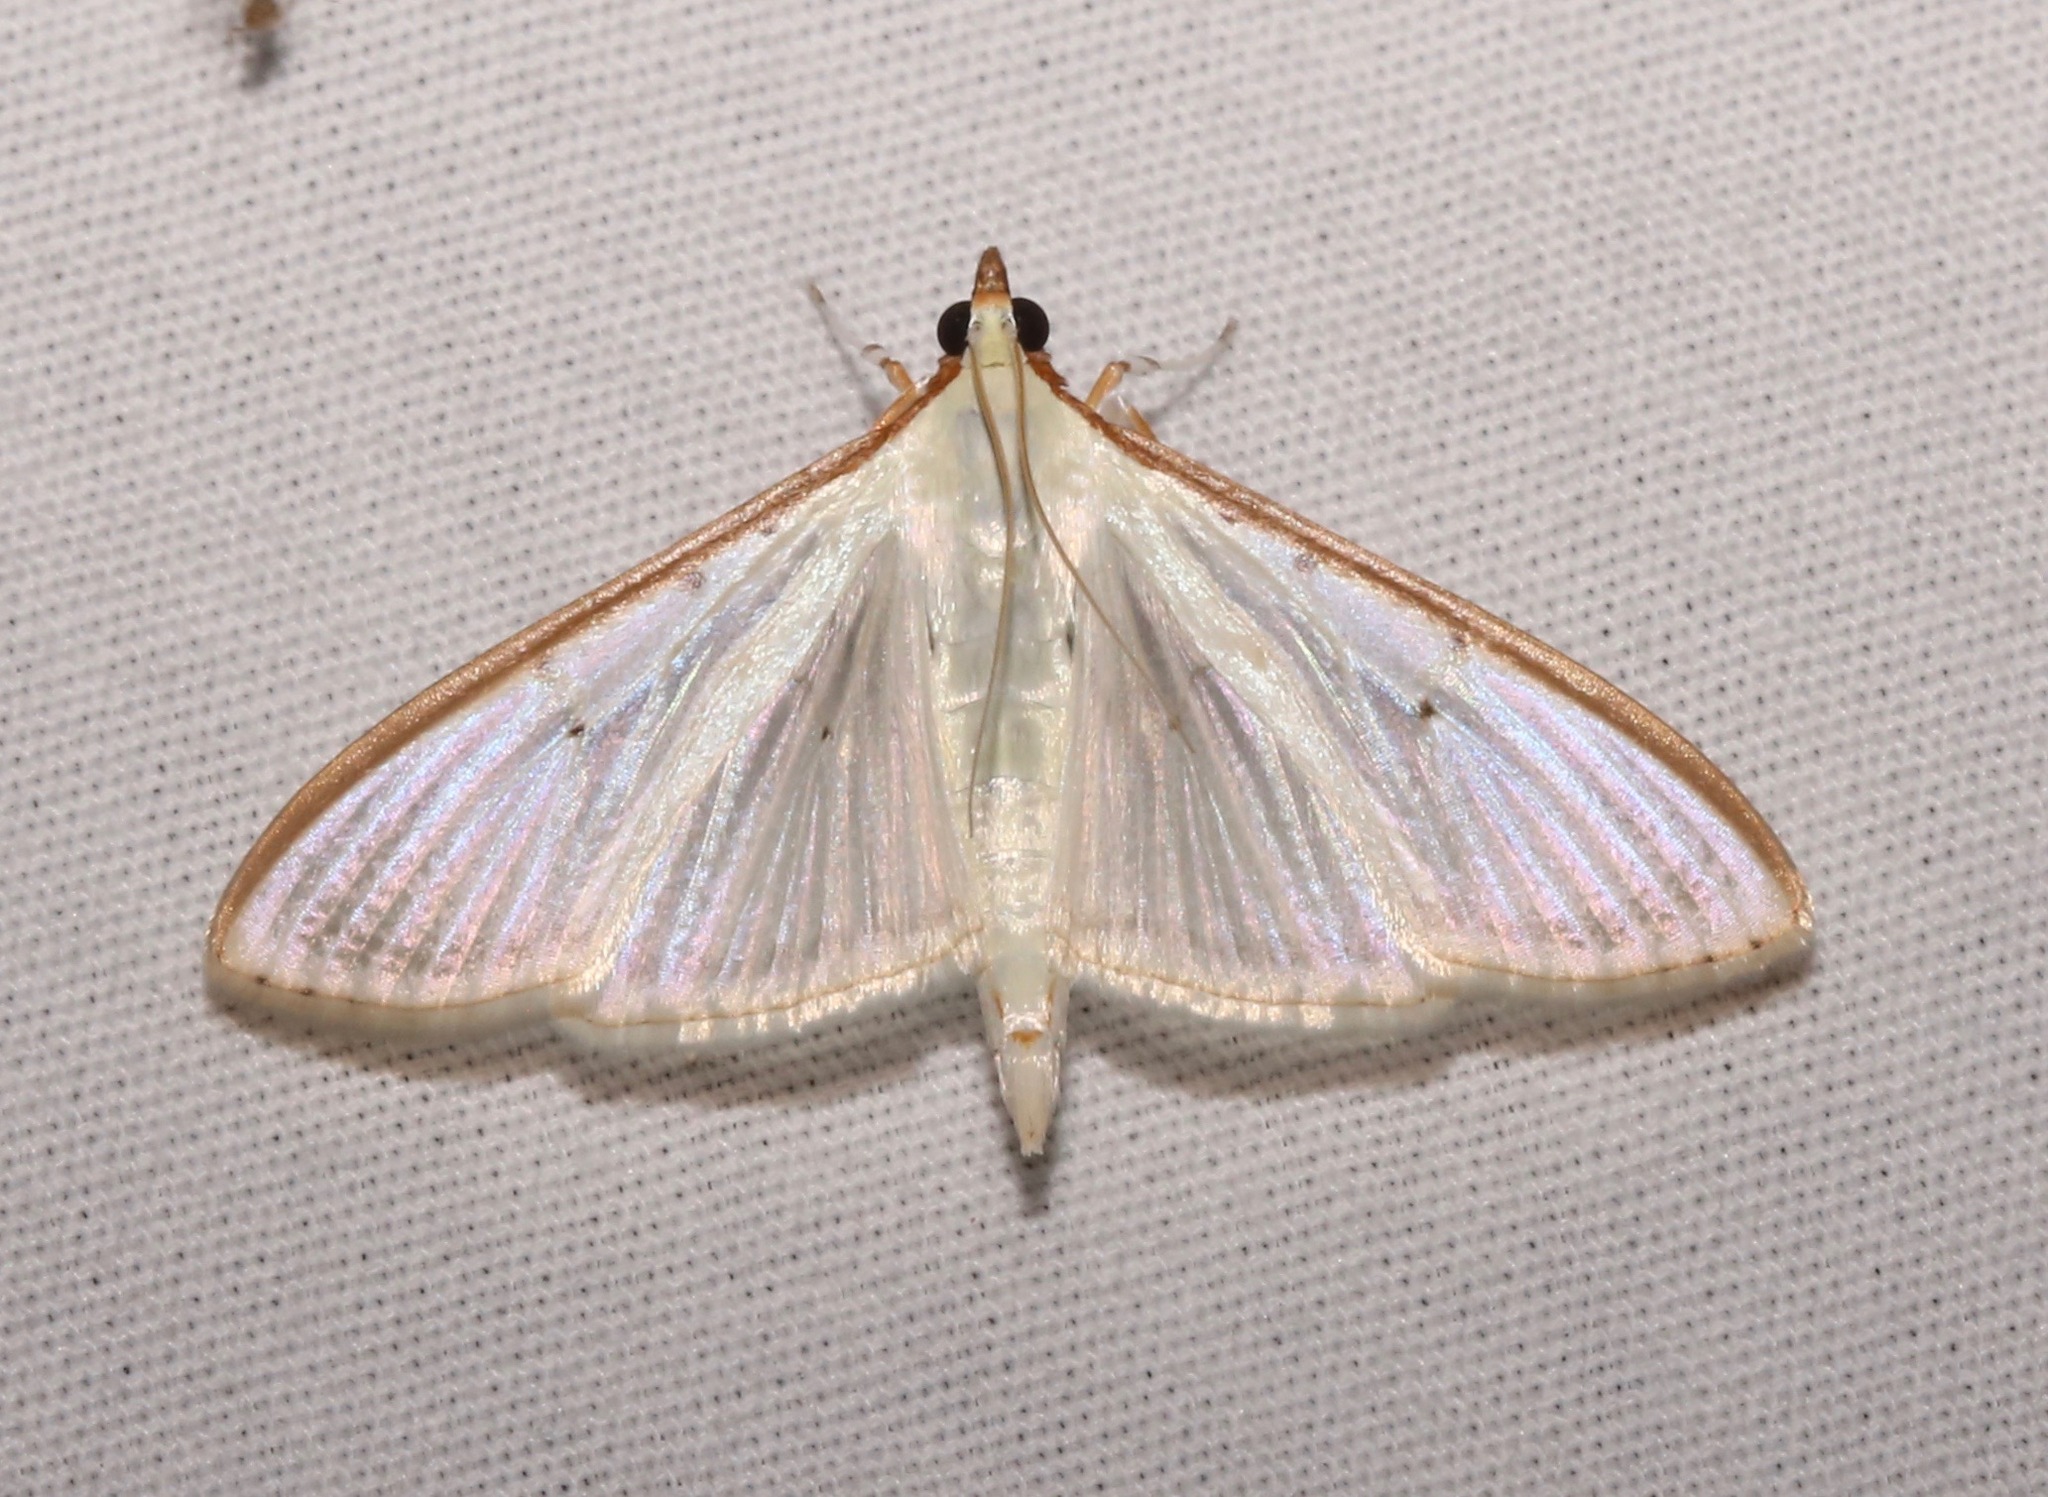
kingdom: Animalia
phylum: Arthropoda
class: Insecta
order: Lepidoptera
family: Crambidae
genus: Palpita
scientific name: Palpita quadristigmalis
